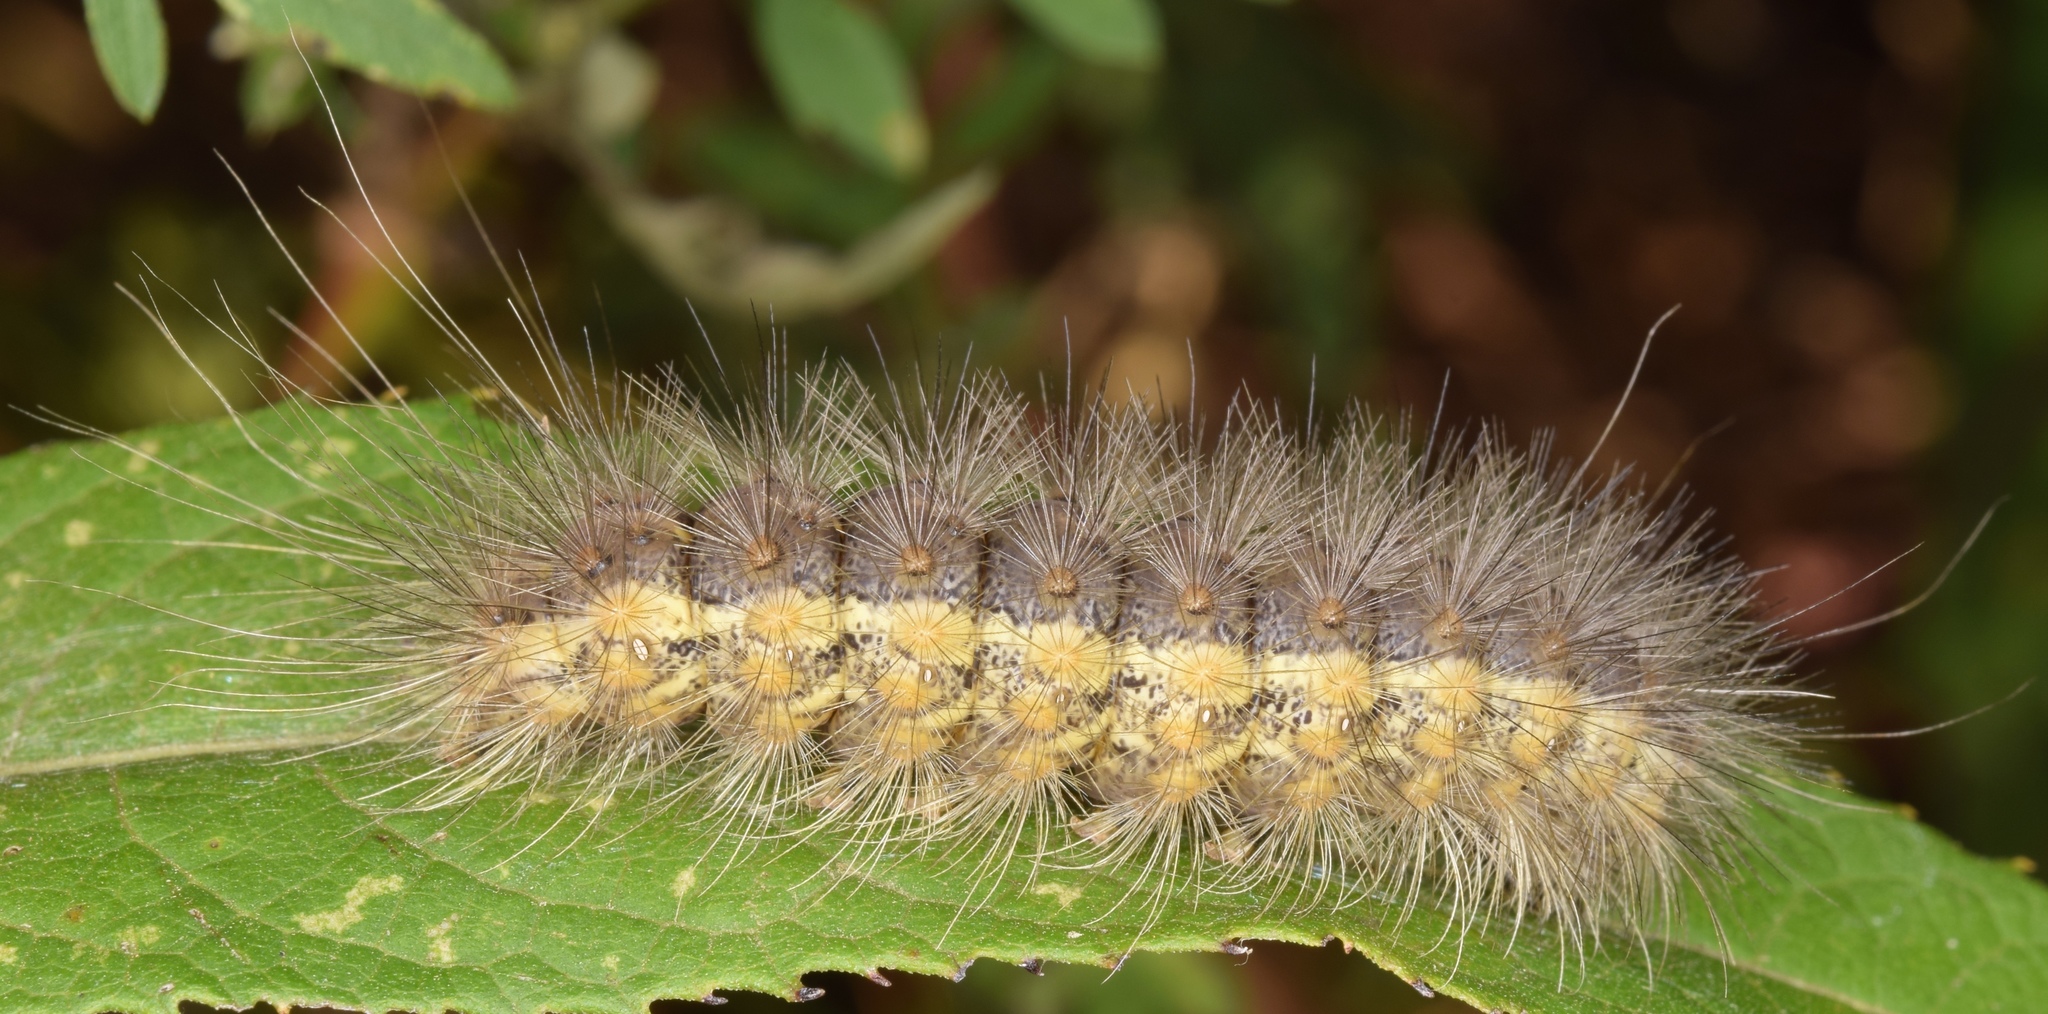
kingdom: Animalia
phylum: Arthropoda
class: Insecta
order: Lepidoptera
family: Erebidae
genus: Estigmene
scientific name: Estigmene acrea
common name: Salt marsh moth
